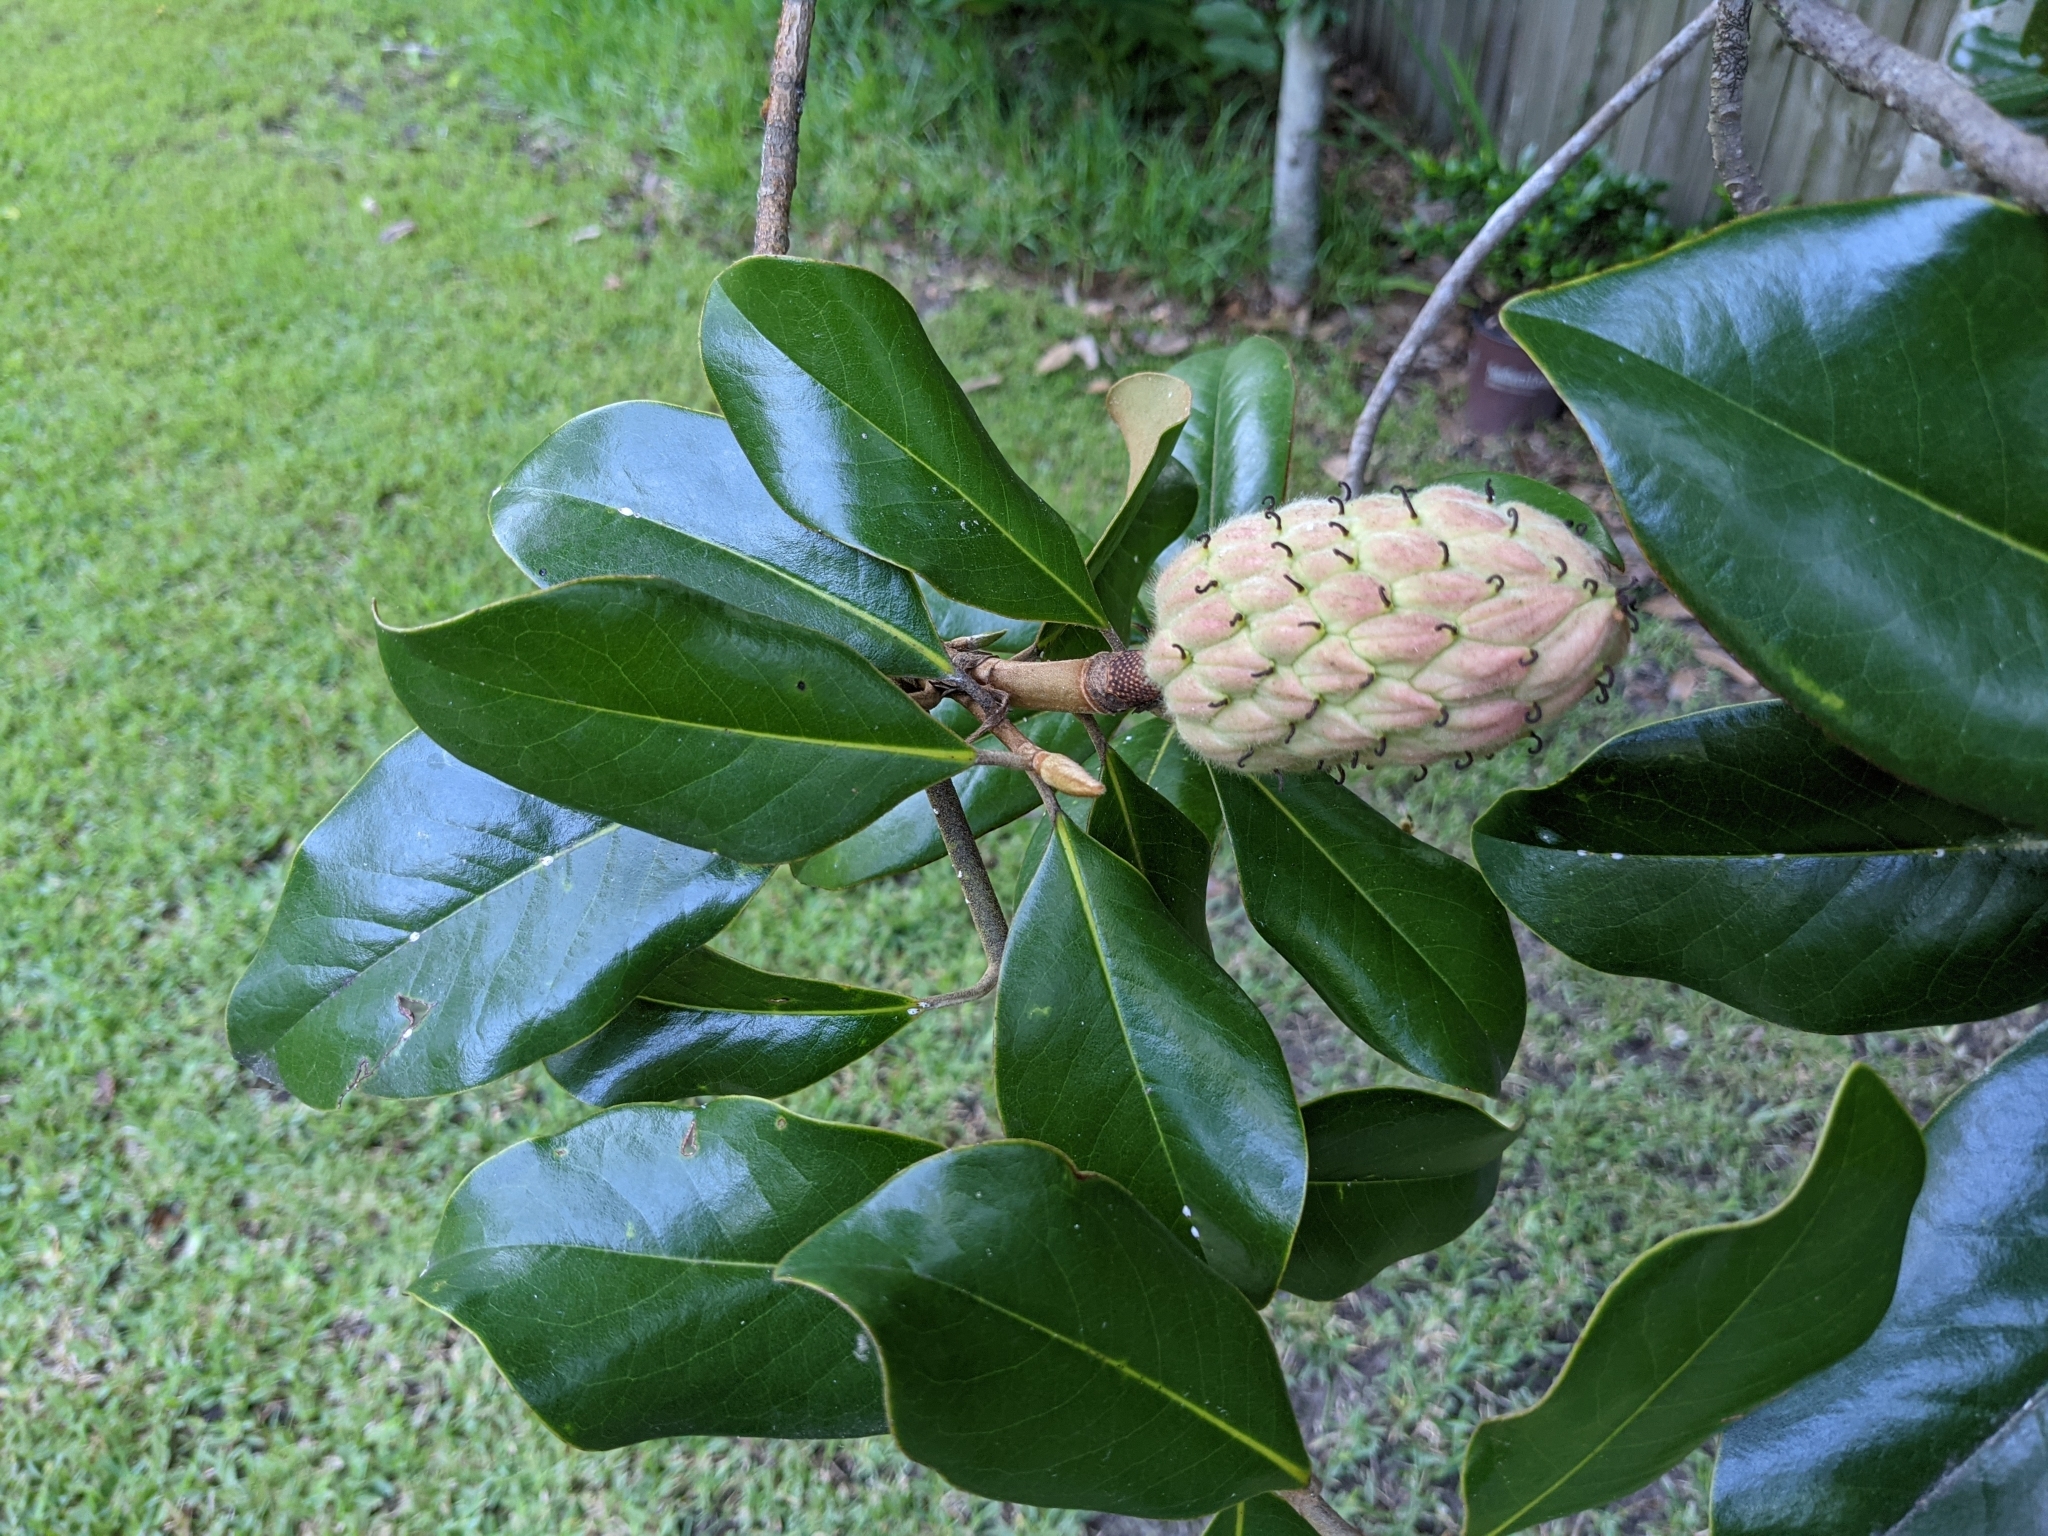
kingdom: Plantae
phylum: Tracheophyta
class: Magnoliopsida
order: Magnoliales
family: Magnoliaceae
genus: Magnolia
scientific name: Magnolia grandiflora
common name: Southern magnolia
